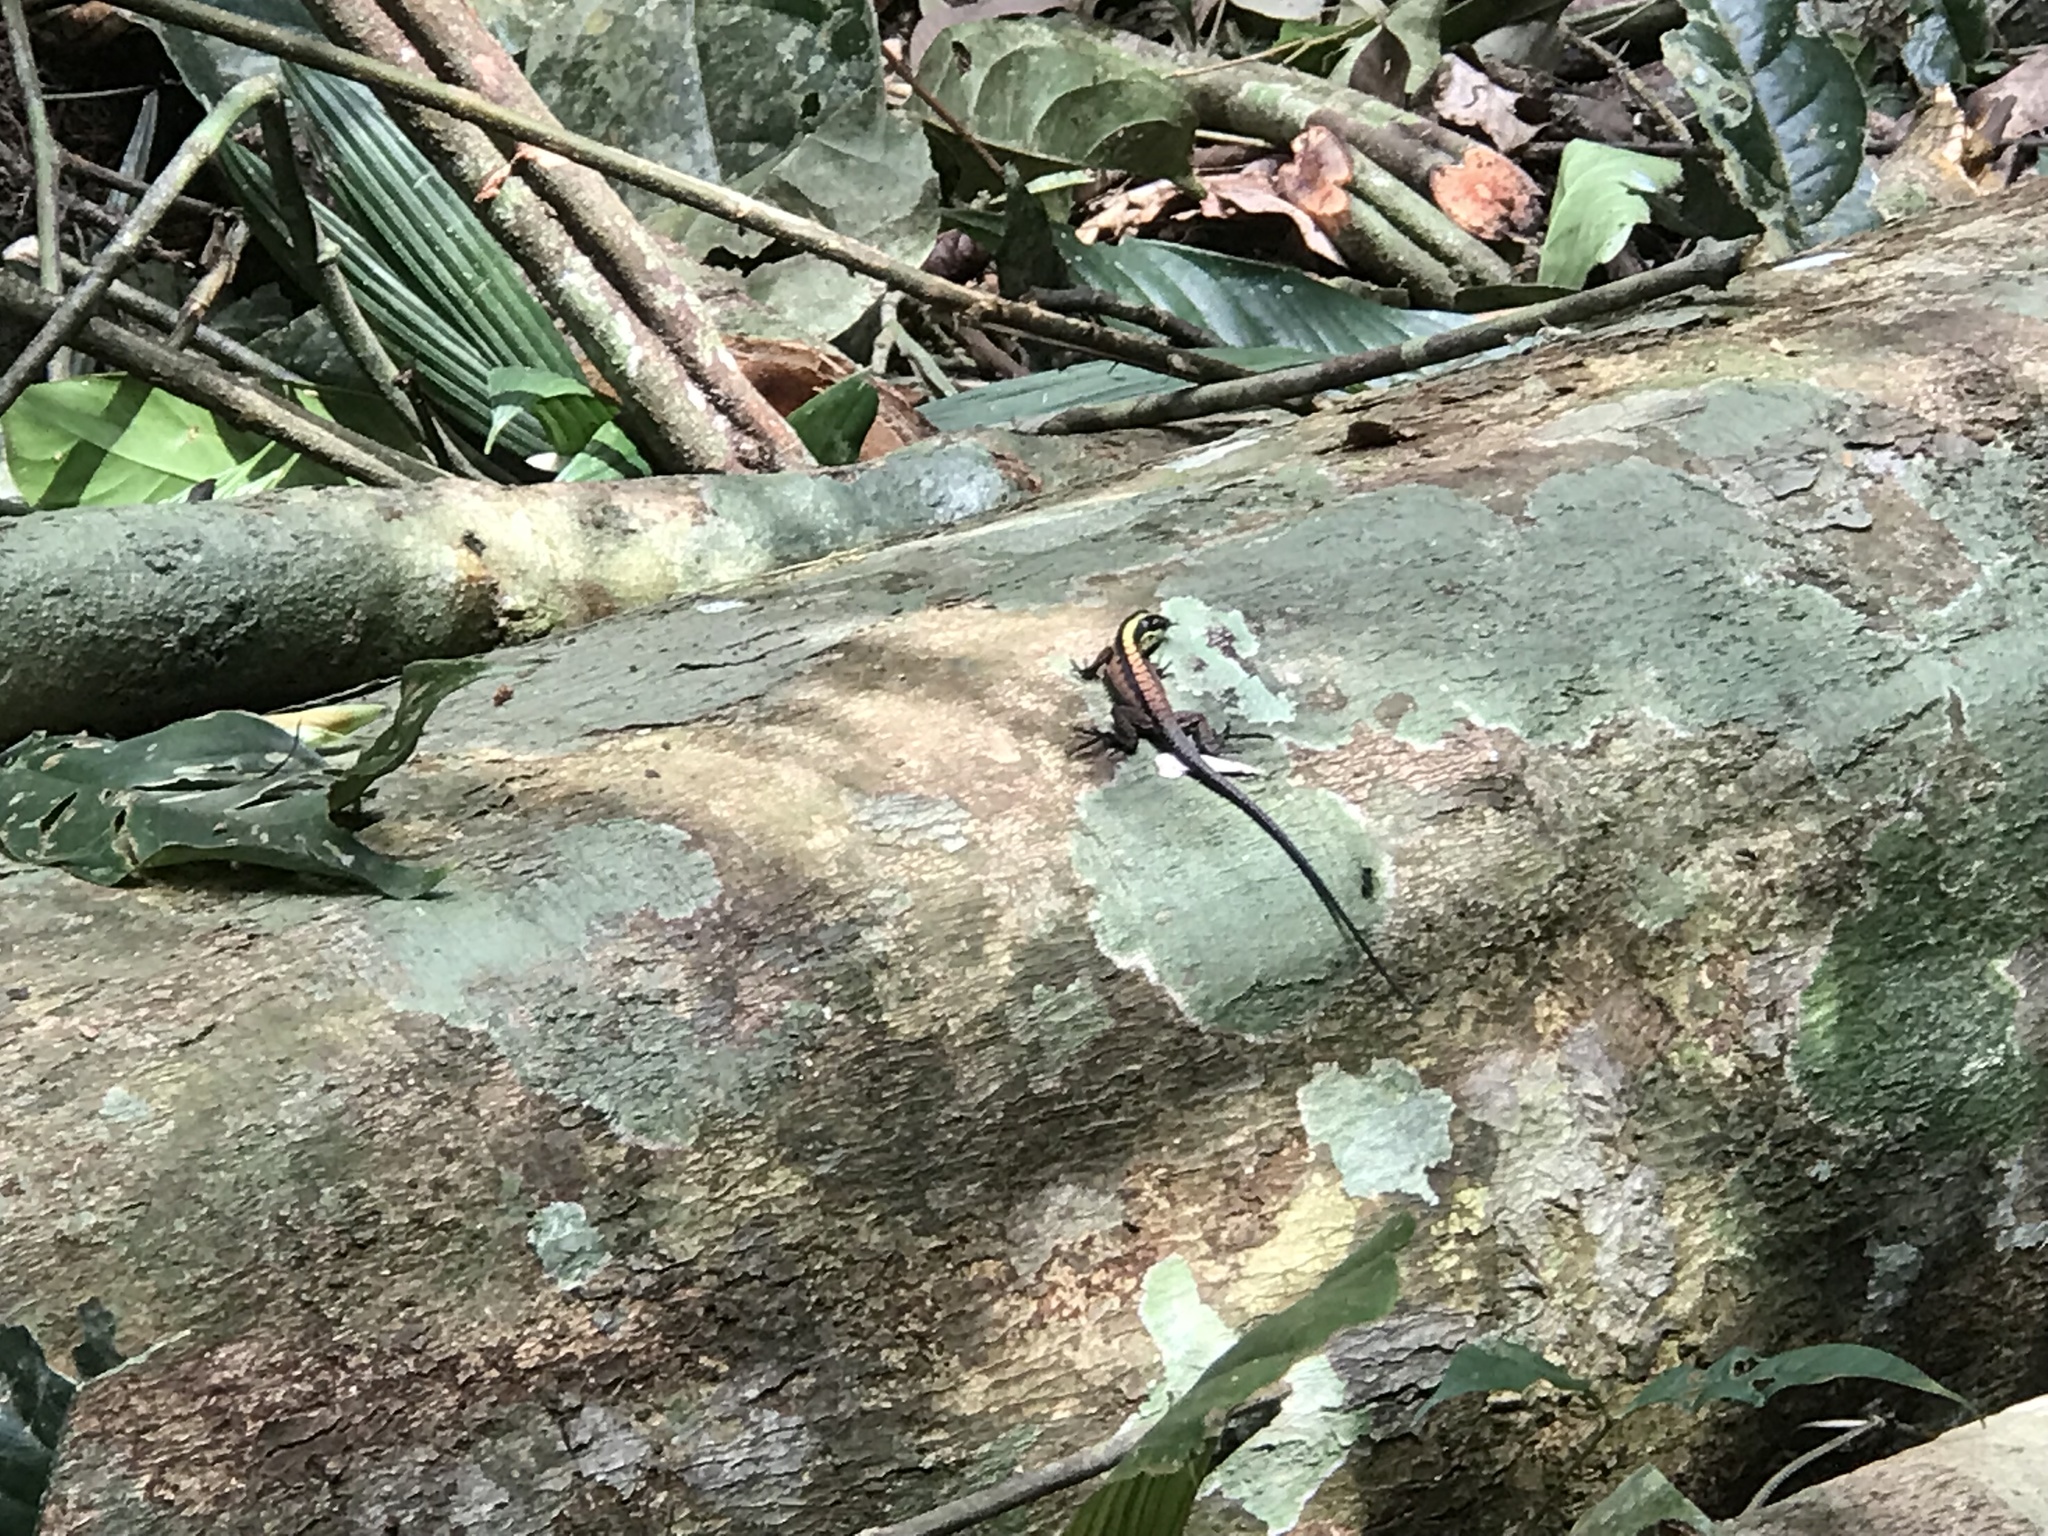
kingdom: Animalia
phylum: Chordata
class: Squamata
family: Teiidae
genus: Kentropyx
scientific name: Kentropyx pelviceps
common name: Forest whiptail
